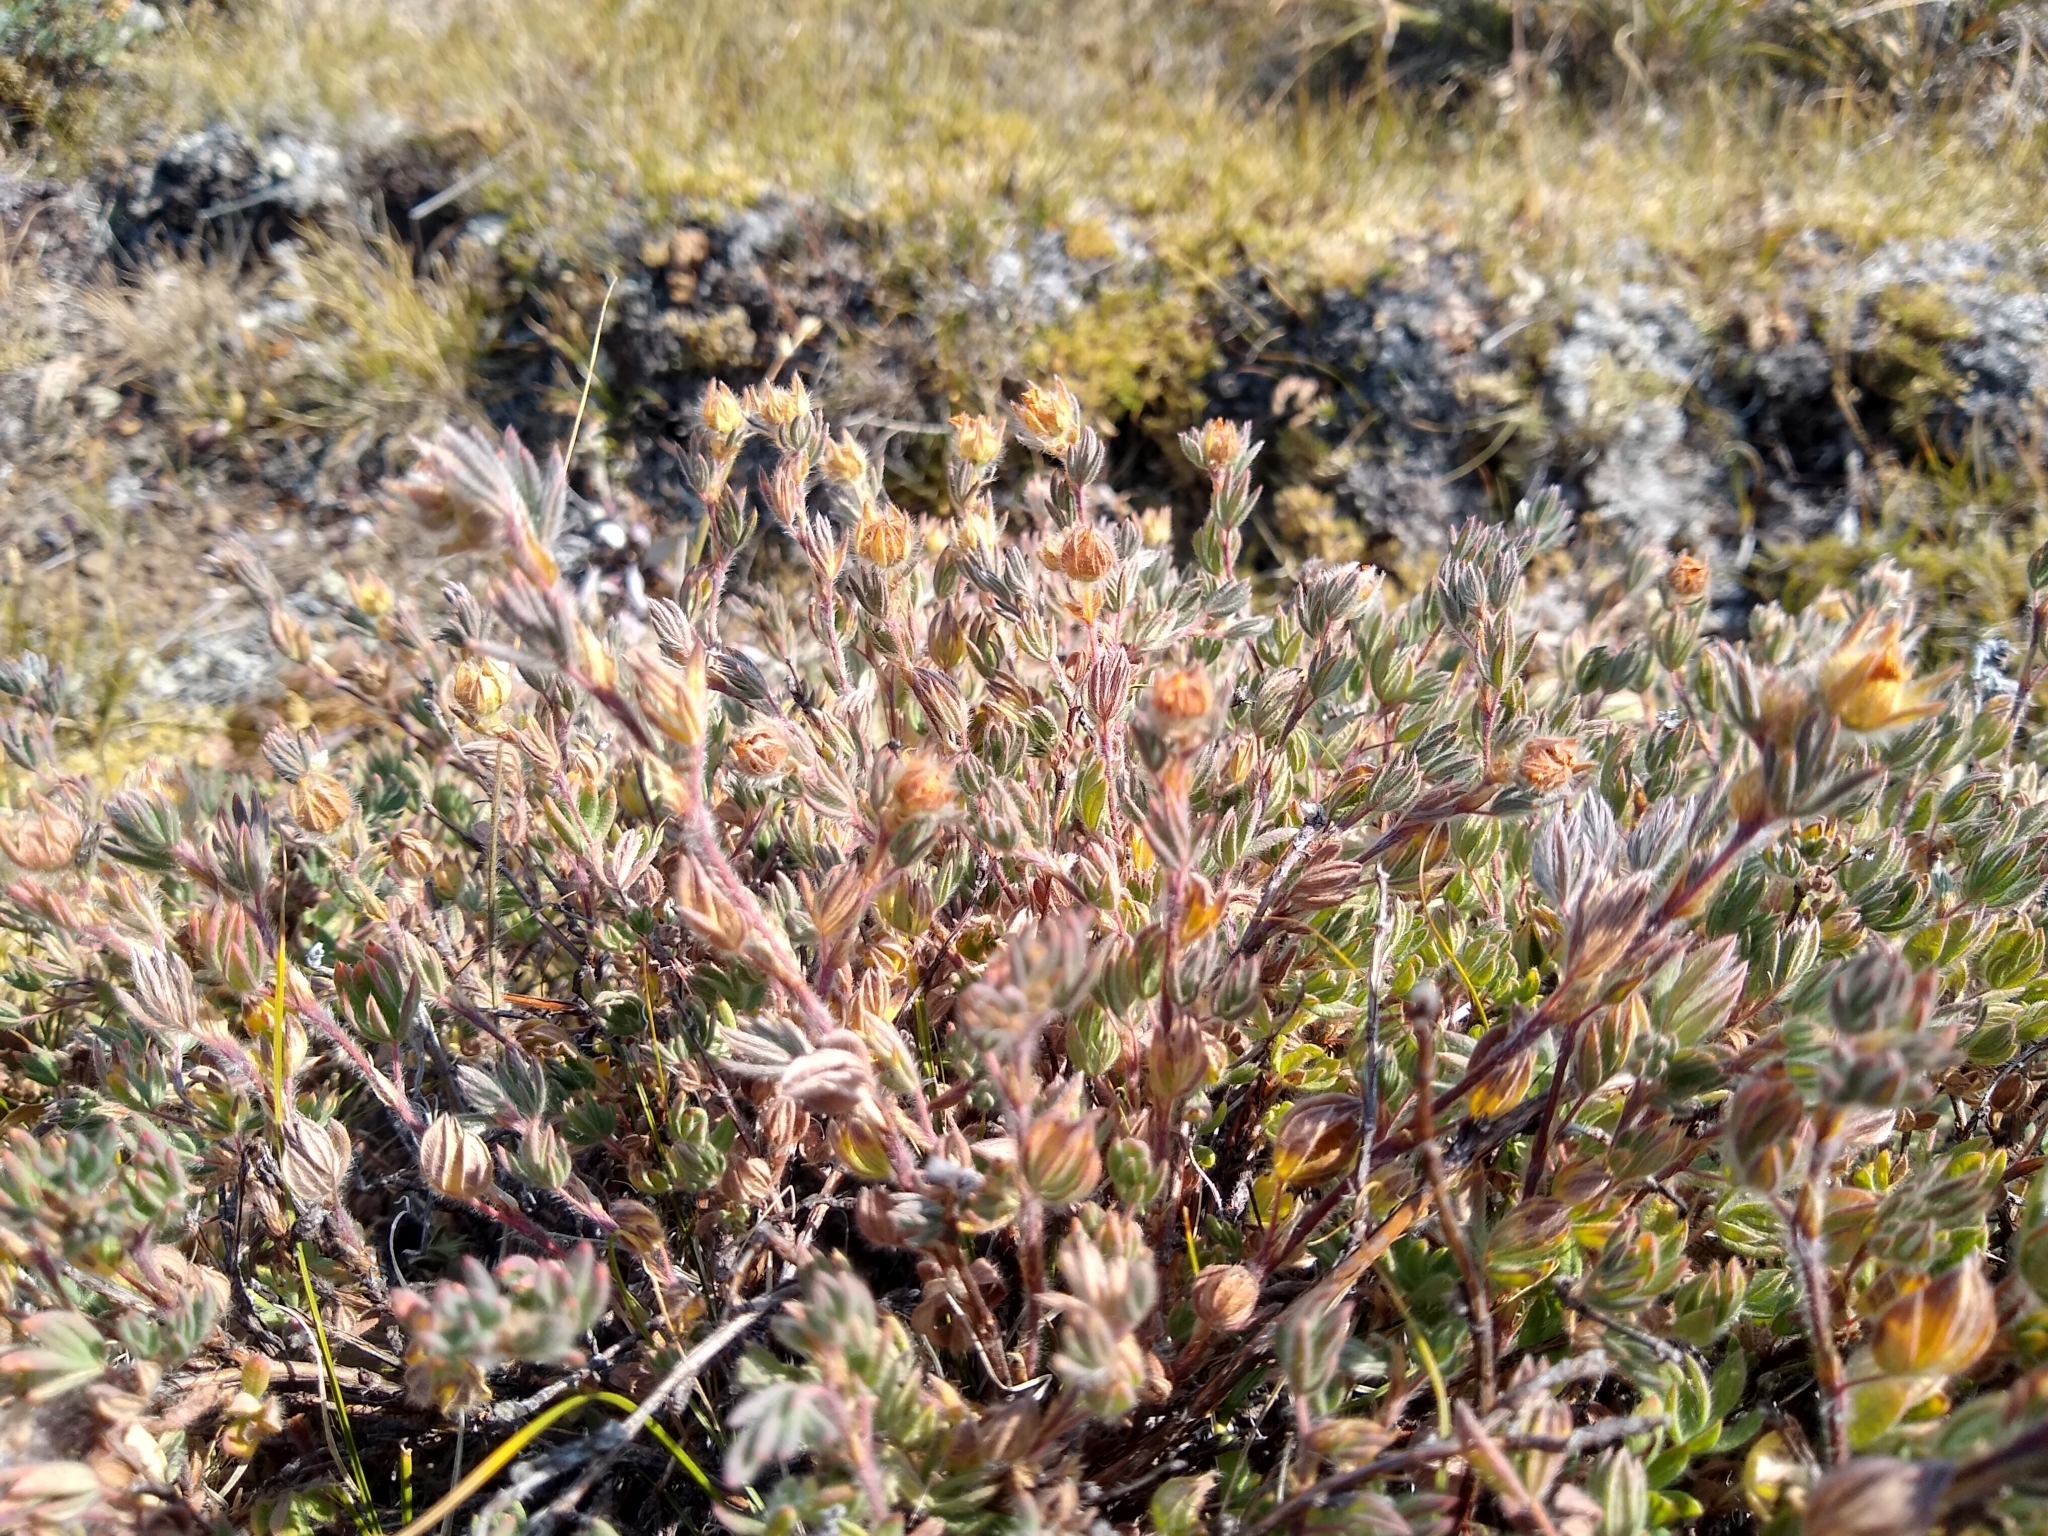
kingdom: Plantae
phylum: Tracheophyta
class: Magnoliopsida
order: Rosales
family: Rosaceae
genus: Dasiphora
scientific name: Dasiphora fruticosa
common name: Shrubby cinquefoil
